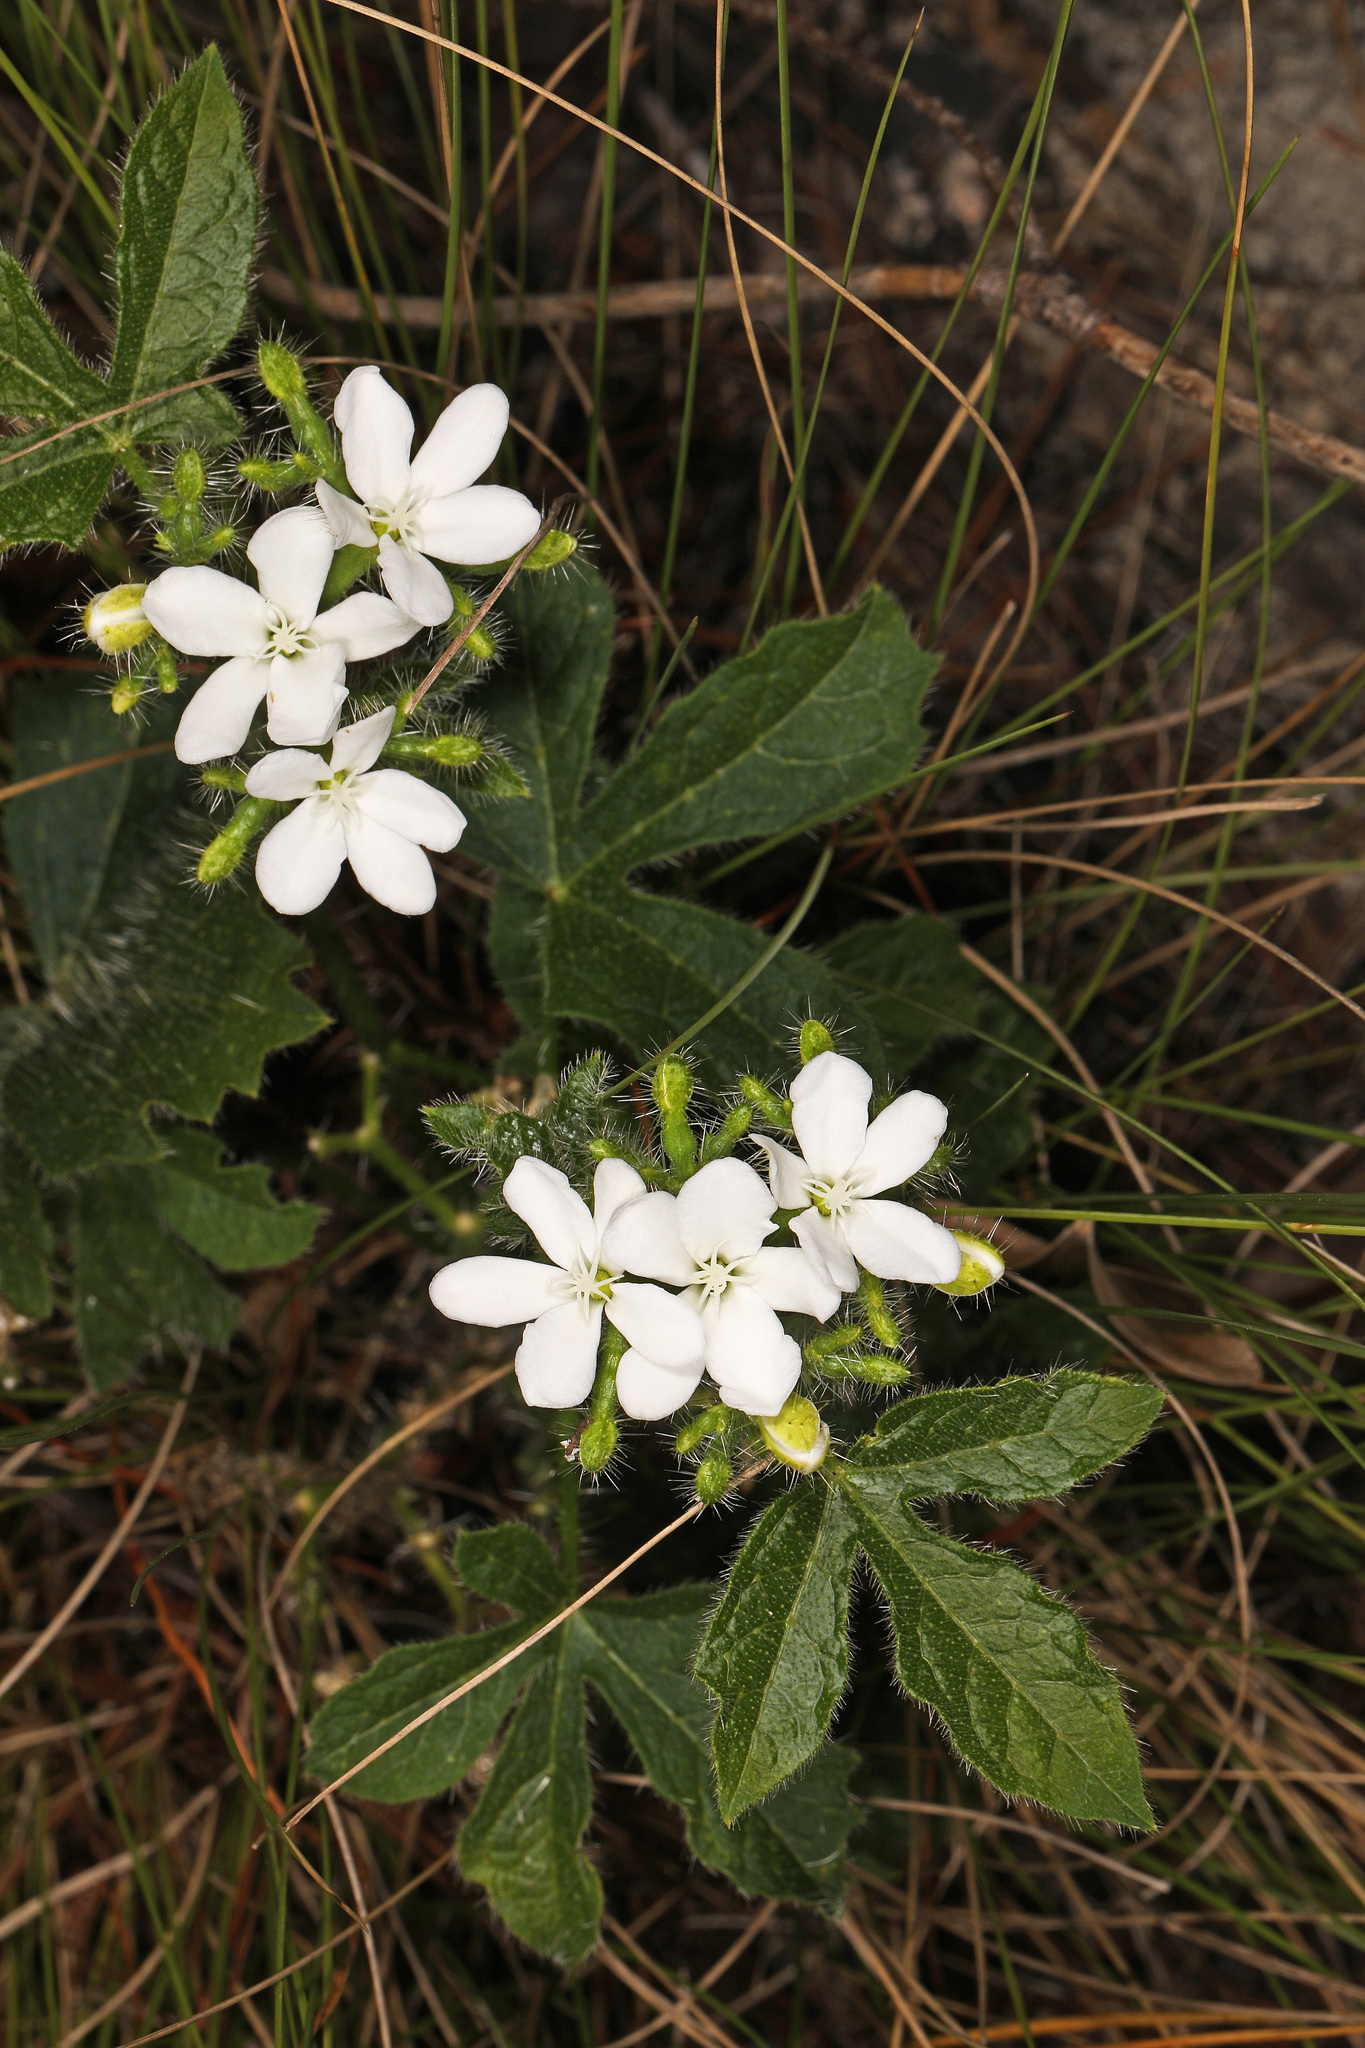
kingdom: Plantae
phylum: Tracheophyta
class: Magnoliopsida
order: Malpighiales
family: Euphorbiaceae
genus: Cnidoscolus
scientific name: Cnidoscolus stimulosus
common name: Bull-nettle
